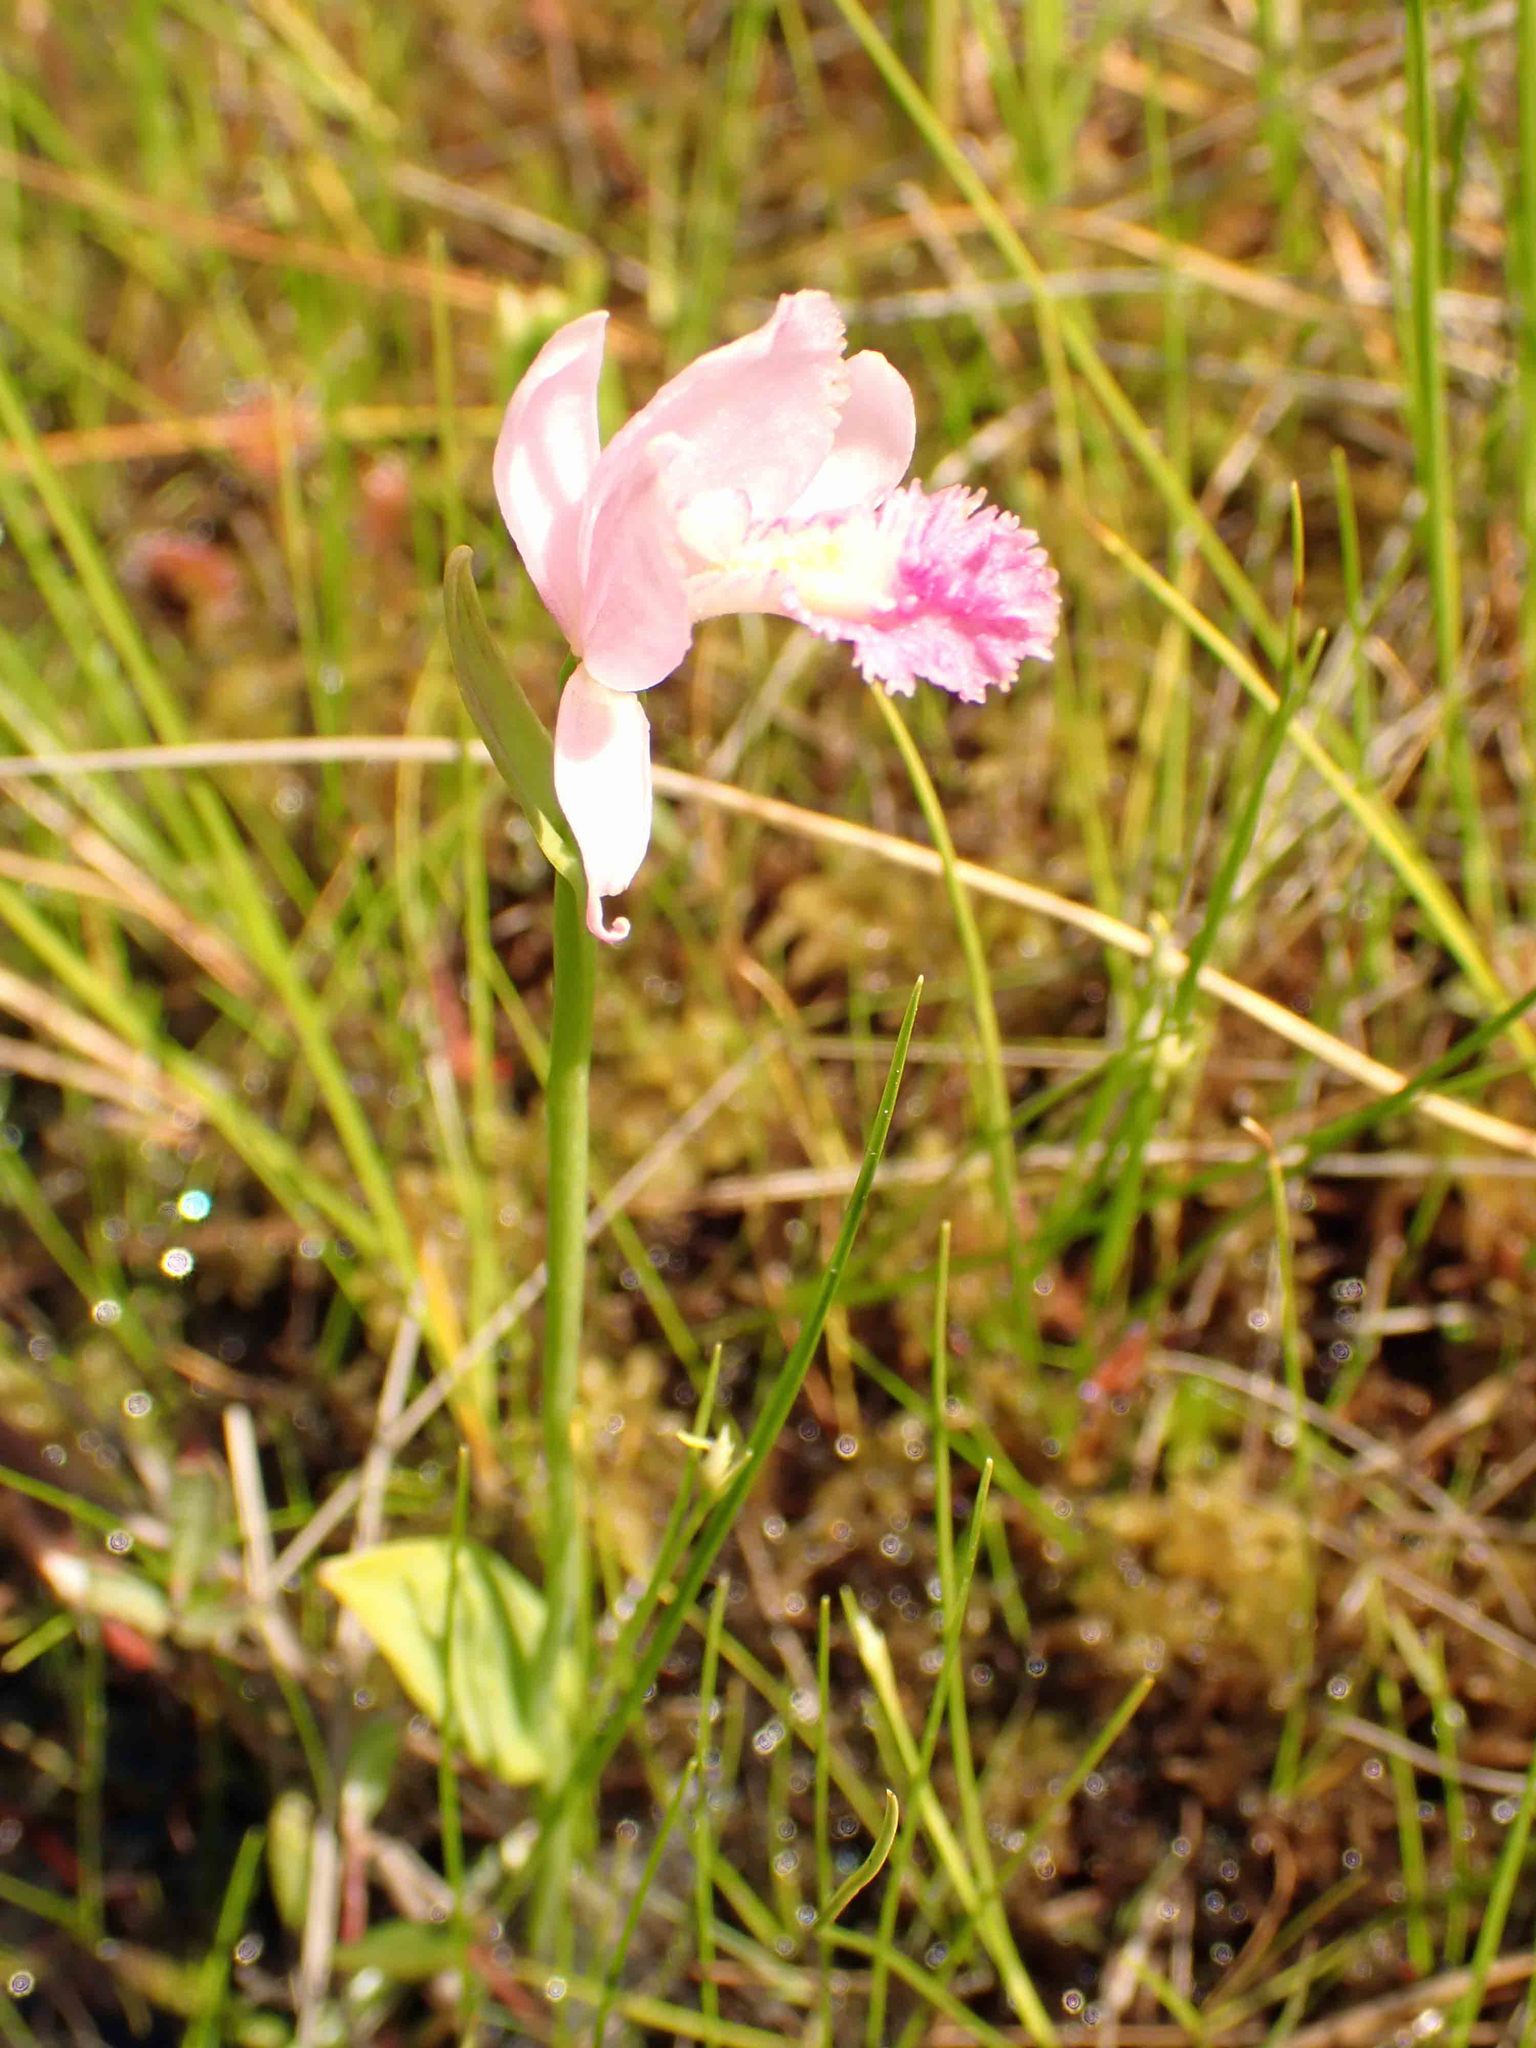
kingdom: Plantae
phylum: Tracheophyta
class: Liliopsida
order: Asparagales
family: Orchidaceae
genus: Pogonia
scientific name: Pogonia ophioglossoides
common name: Rose pogonia
